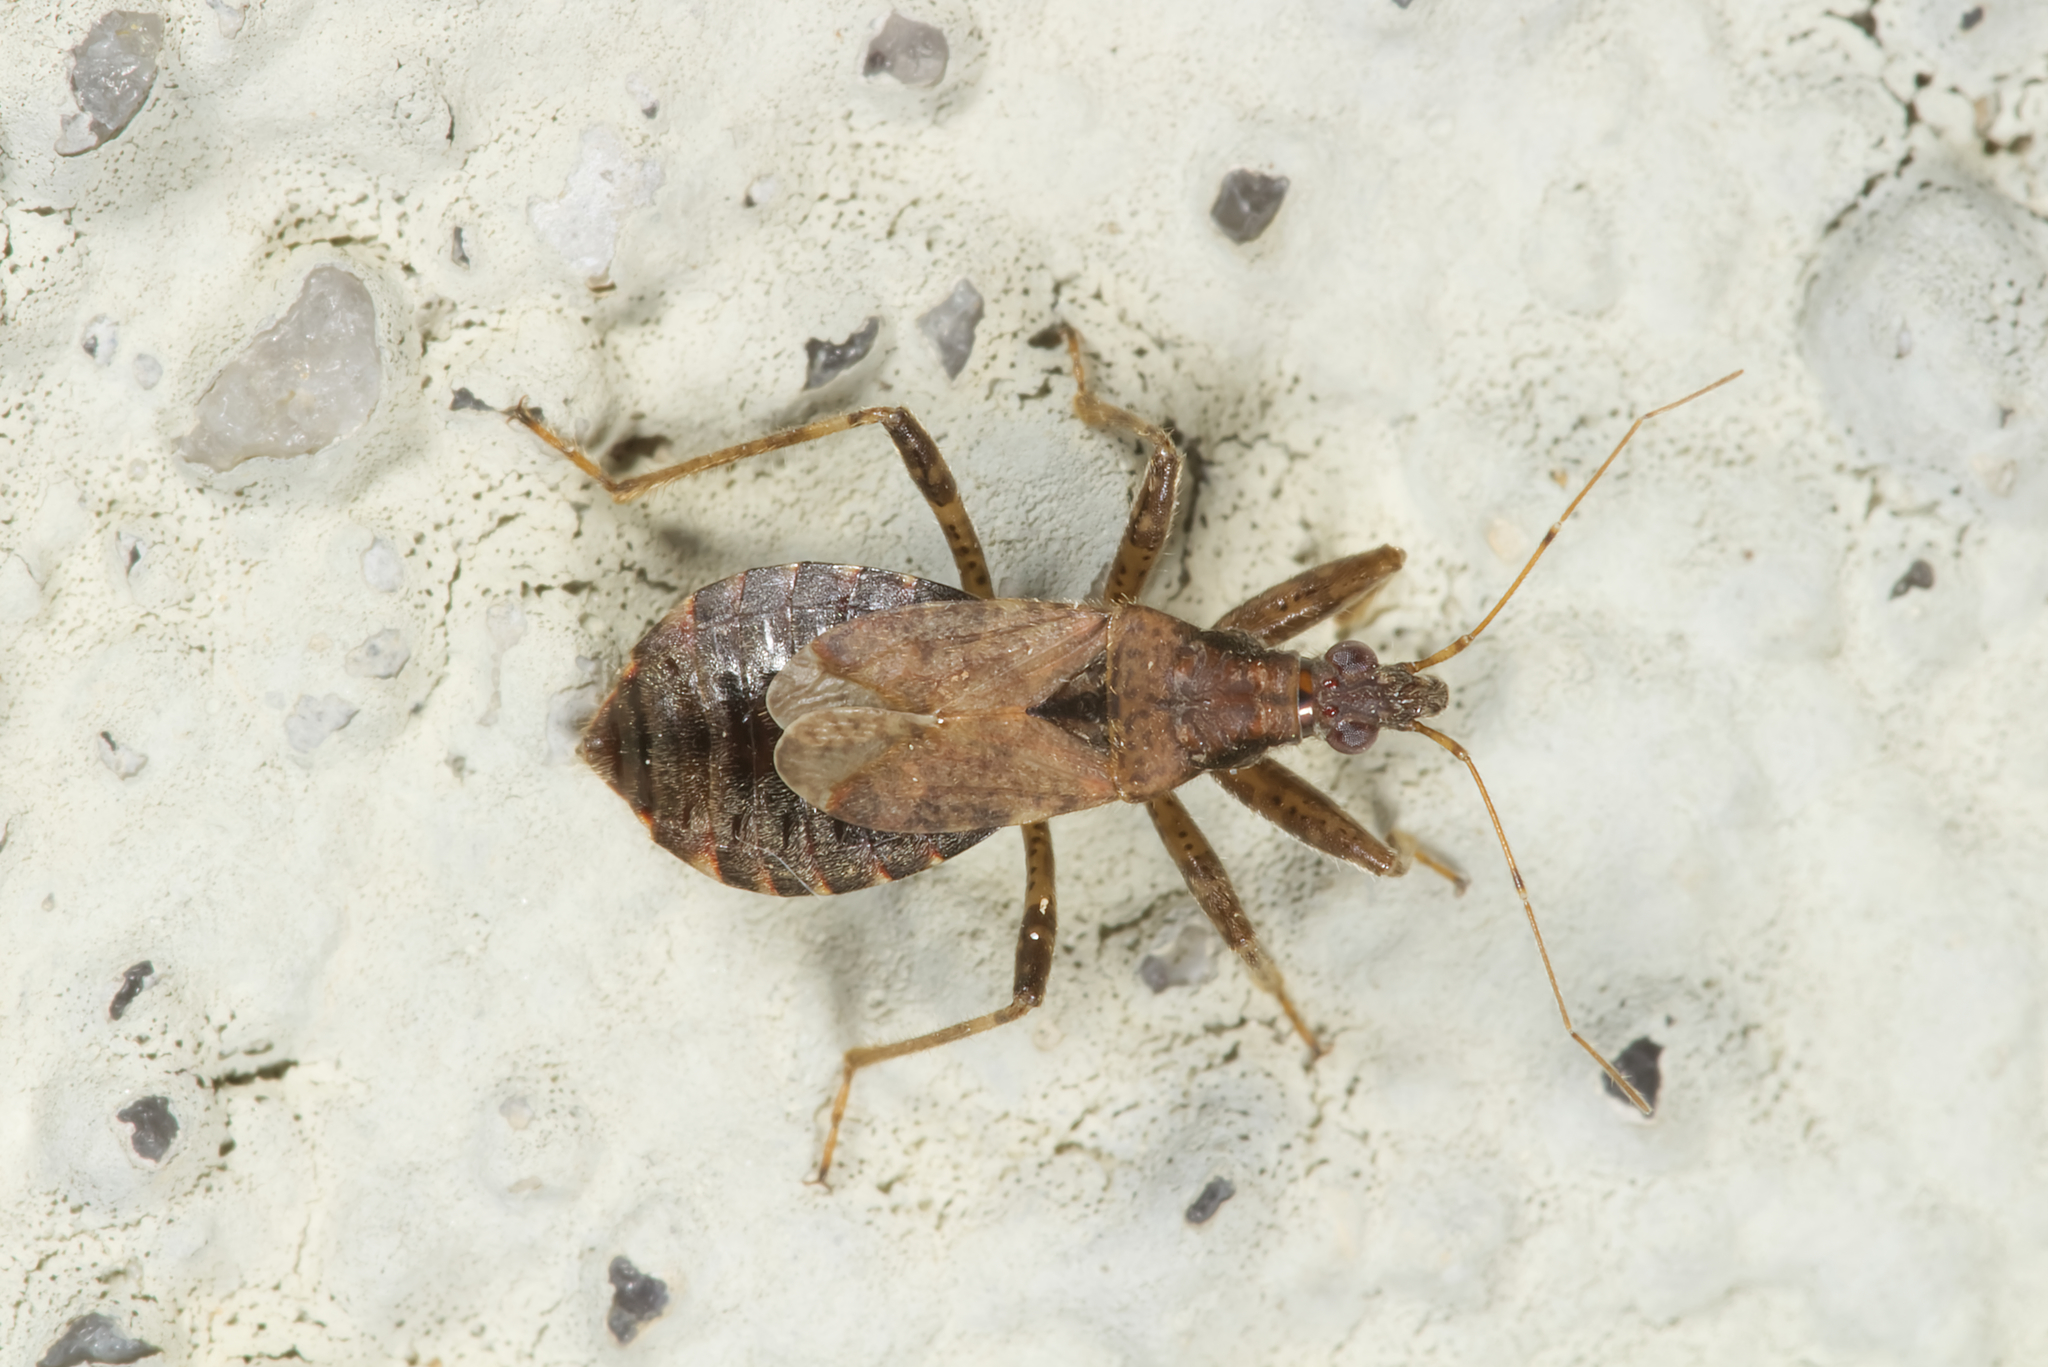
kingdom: Animalia
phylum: Arthropoda
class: Insecta
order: Hemiptera
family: Nabidae
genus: Himacerus
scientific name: Himacerus mirmicoides
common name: Ant damsel bug
